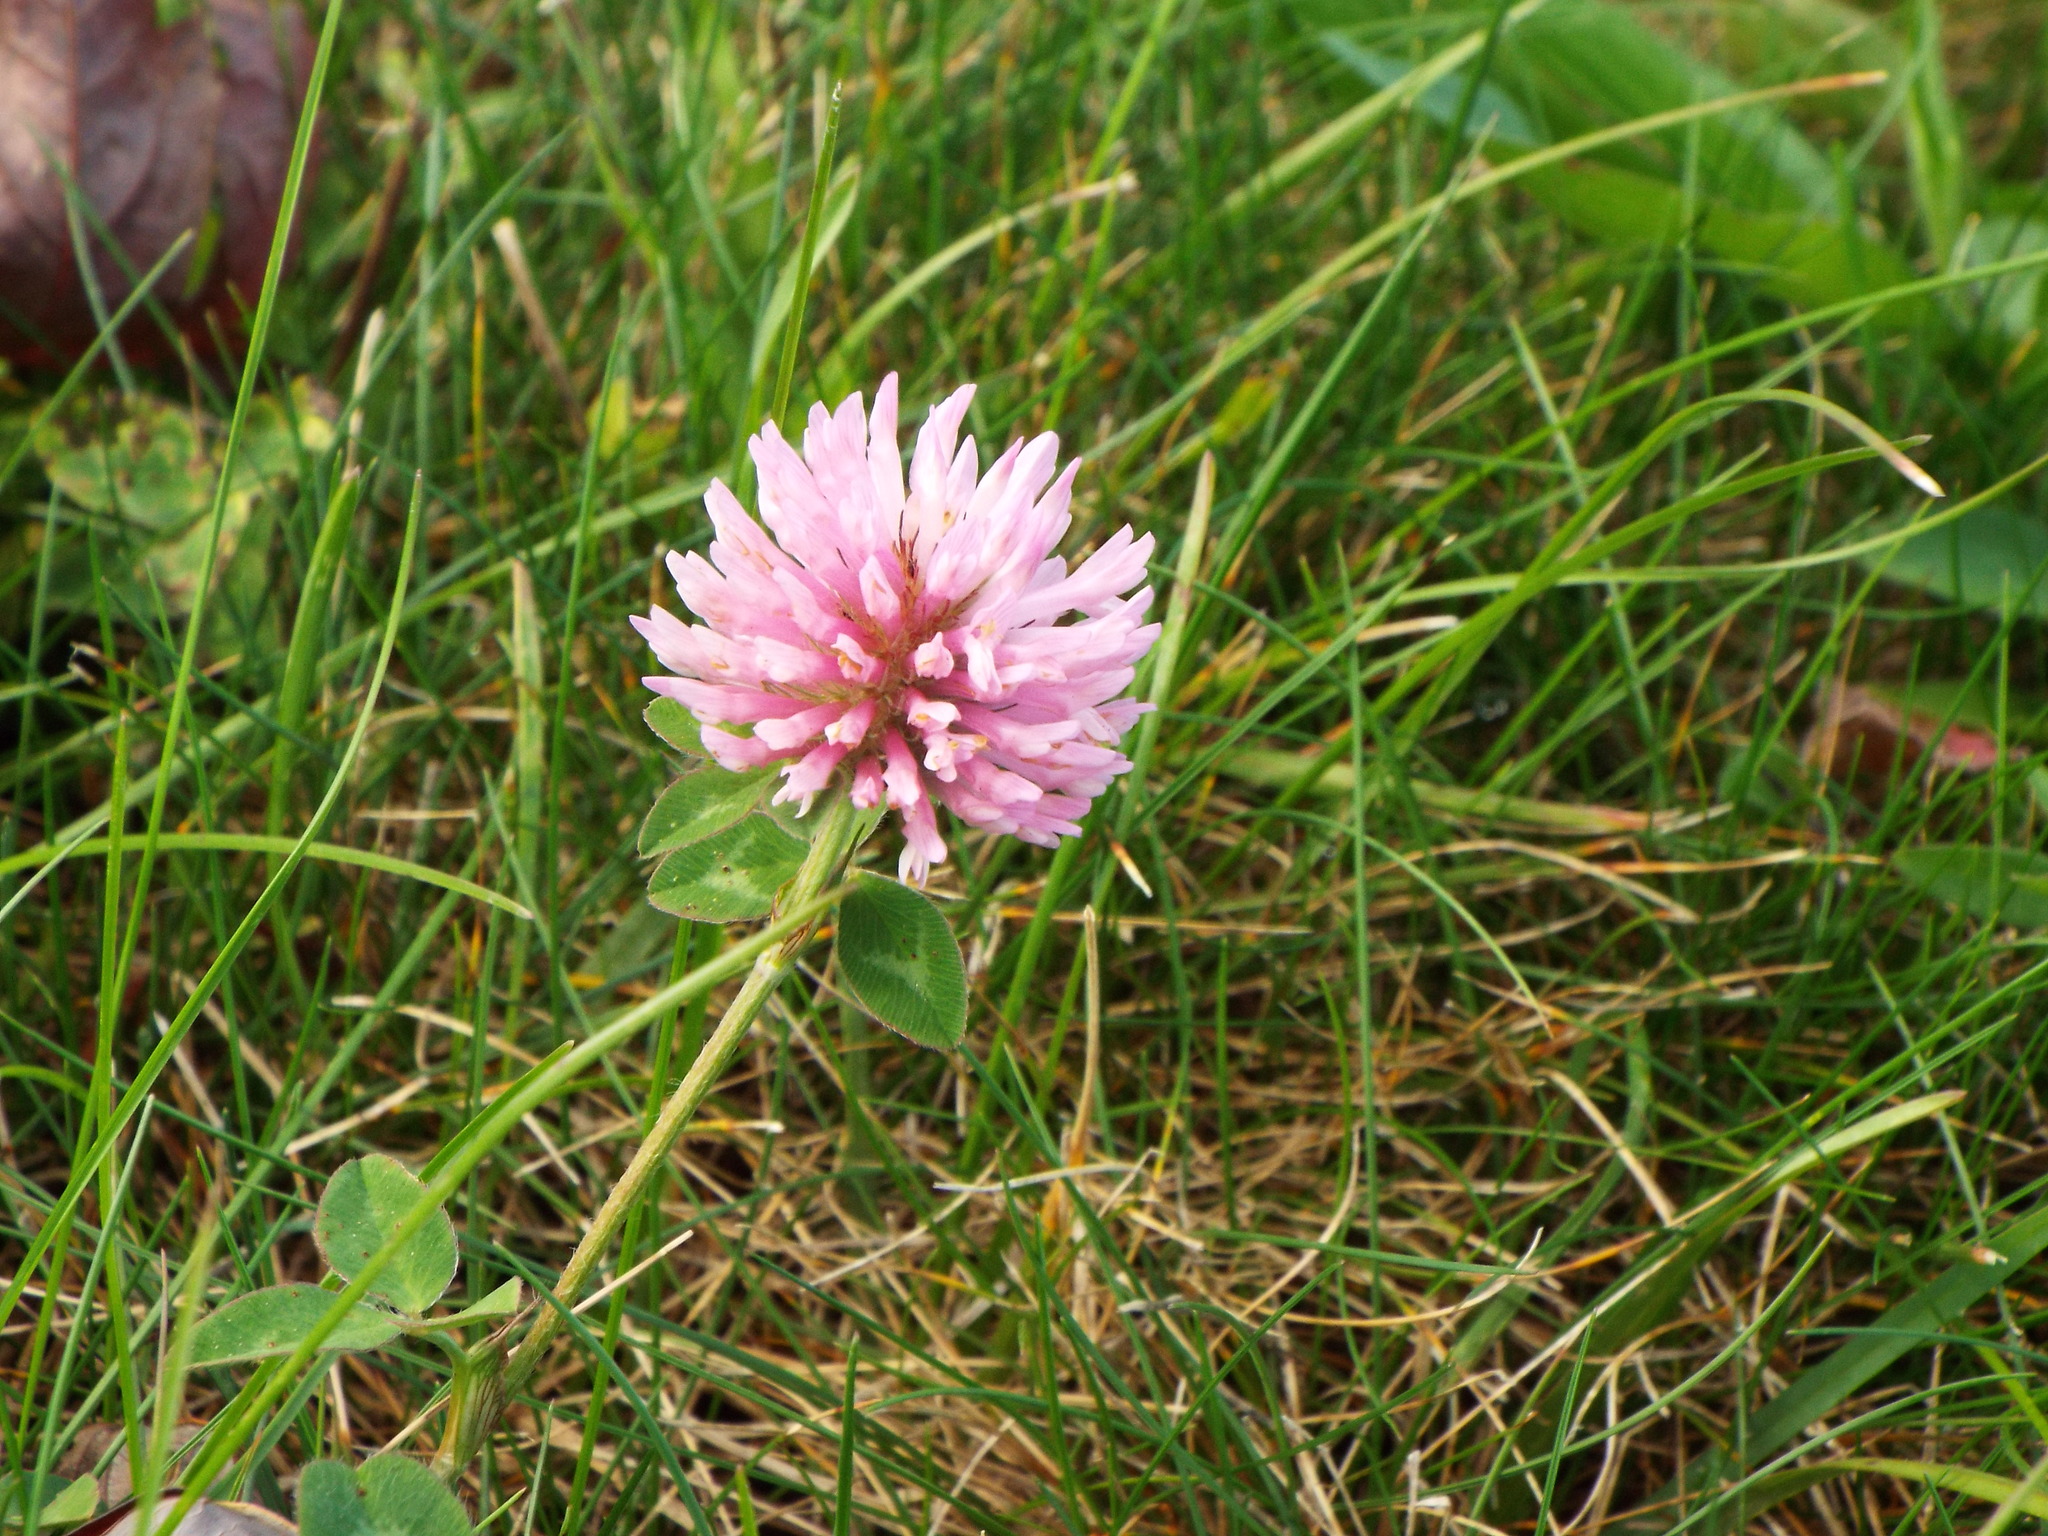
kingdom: Plantae
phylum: Tracheophyta
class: Magnoliopsida
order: Fabales
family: Fabaceae
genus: Trifolium
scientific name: Trifolium pratense
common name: Red clover
